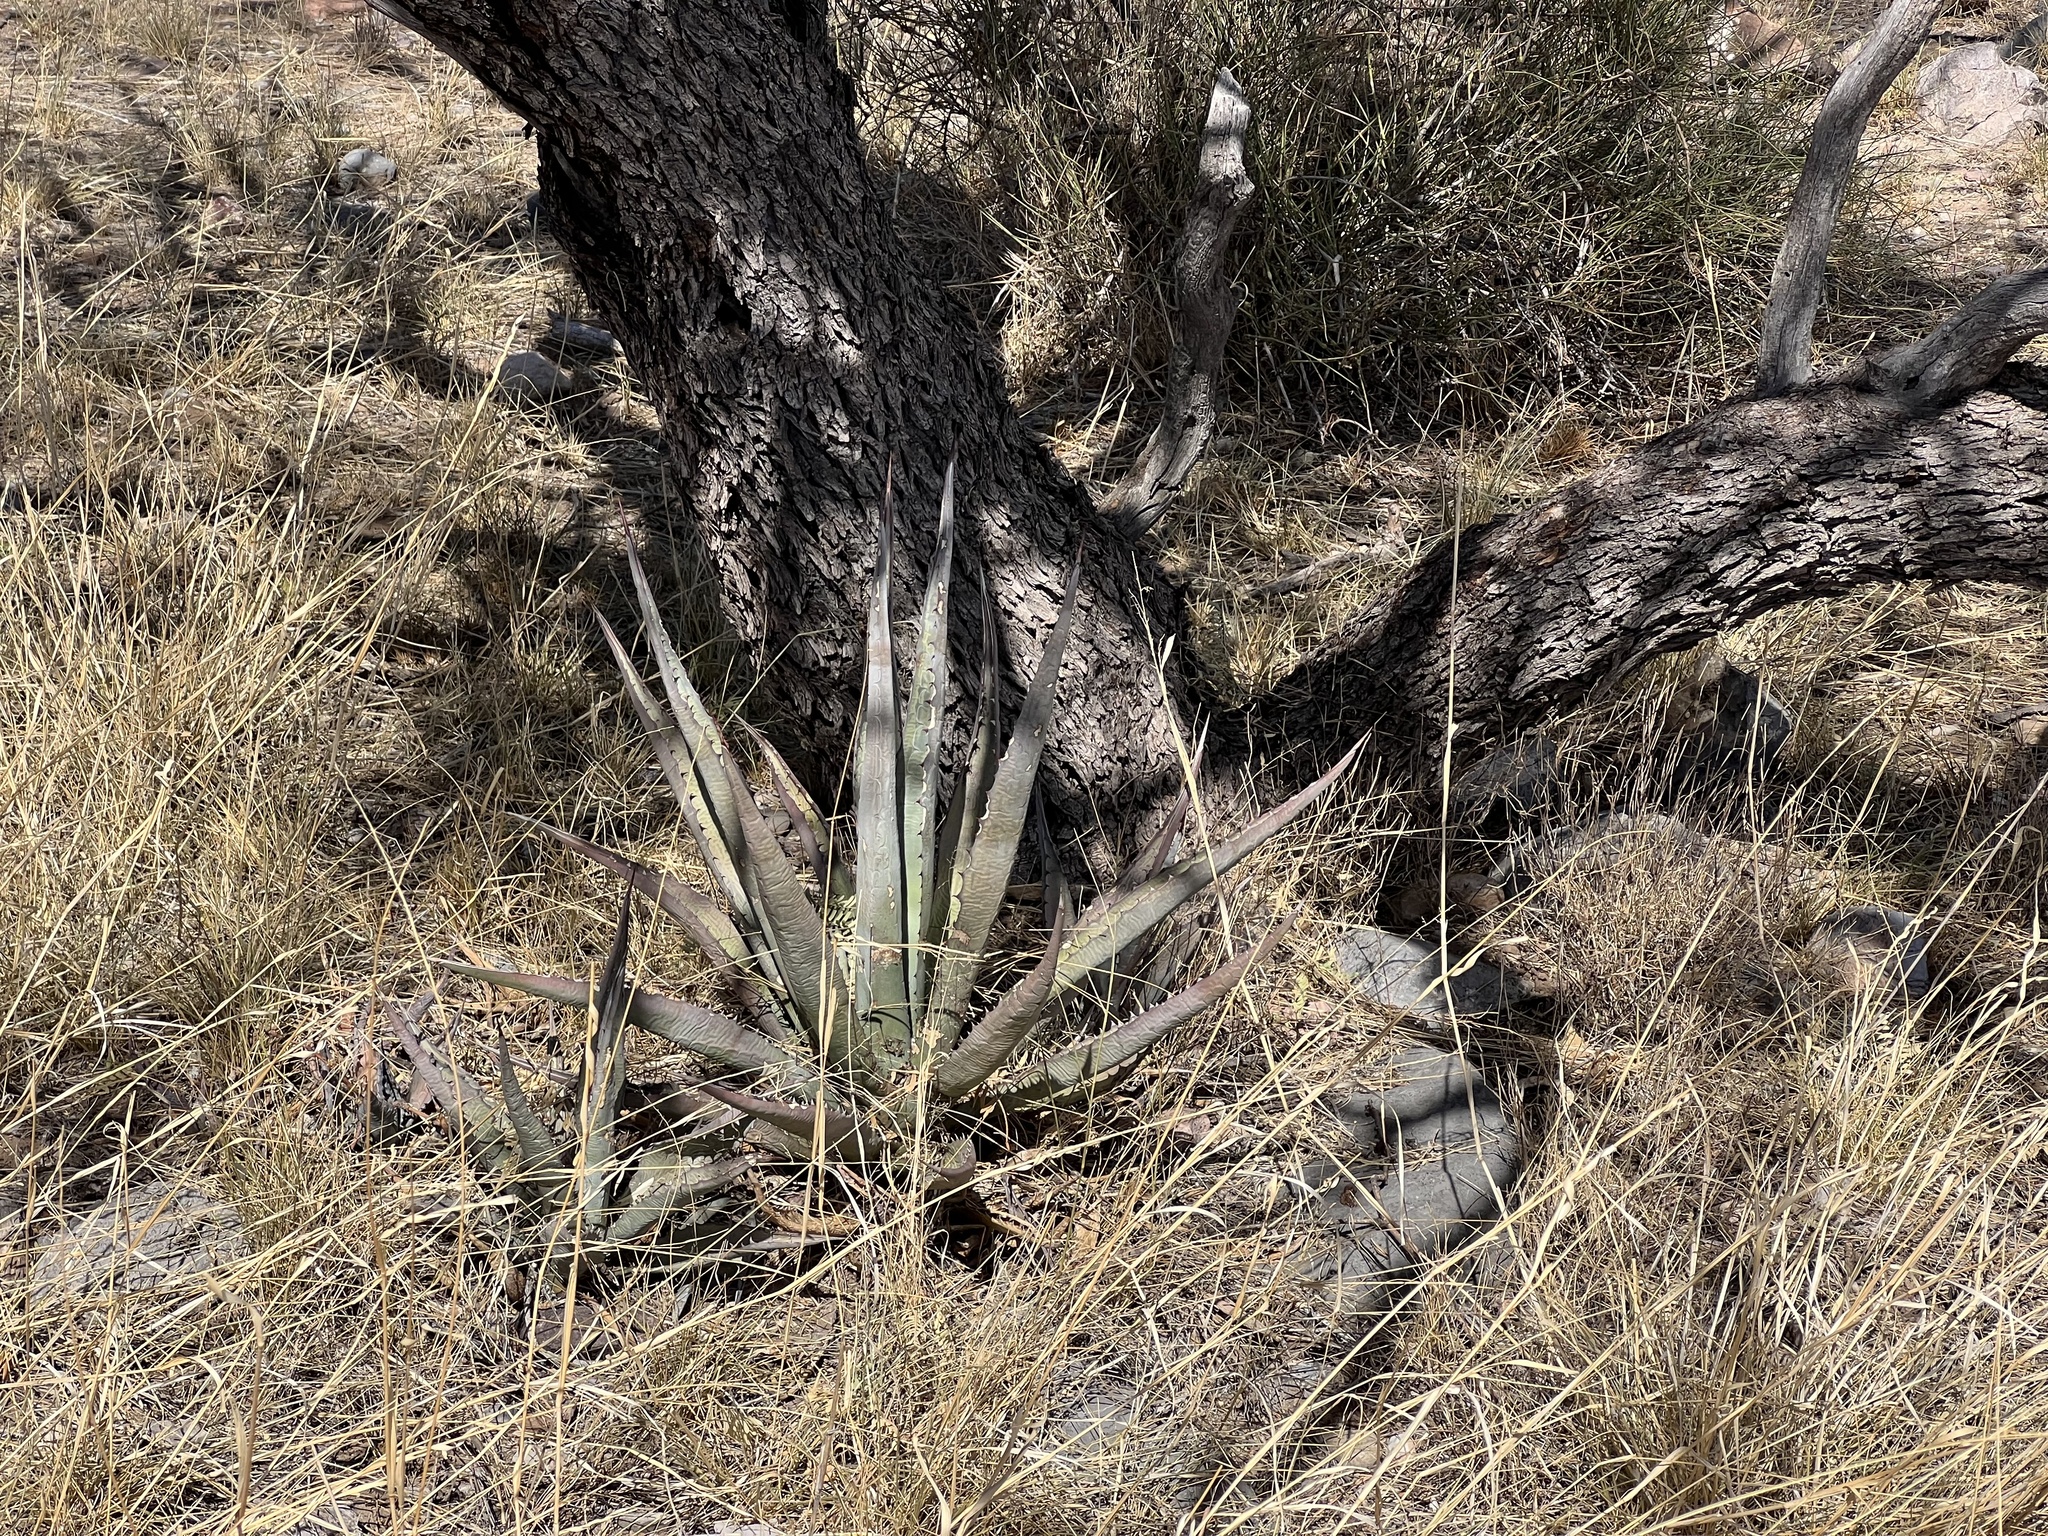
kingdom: Plantae
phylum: Tracheophyta
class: Liliopsida
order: Asparagales
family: Asparagaceae
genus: Agave
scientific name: Agave palmeri
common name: Palmer agave
